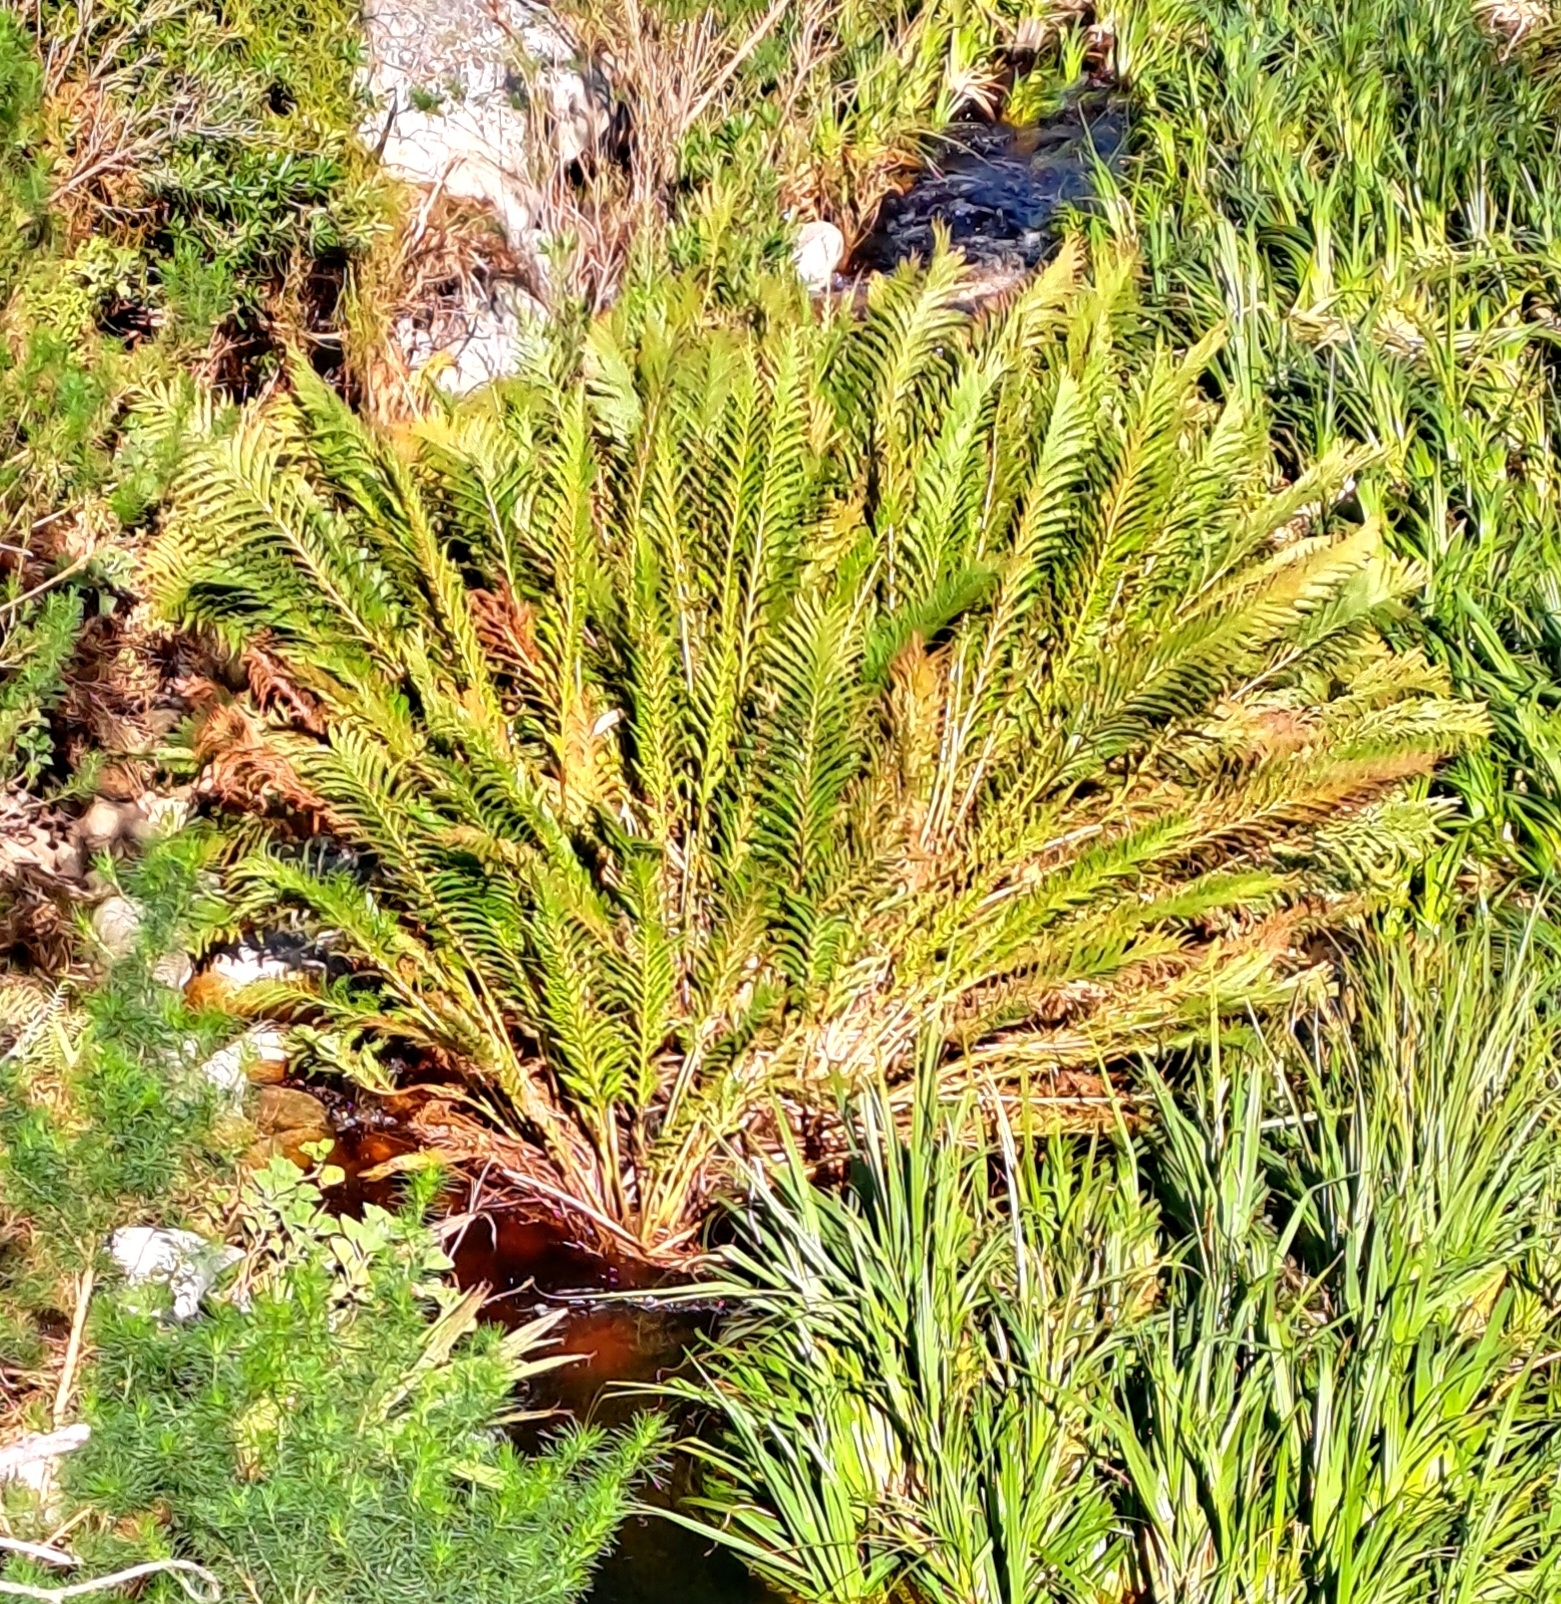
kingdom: Plantae
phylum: Tracheophyta
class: Polypodiopsida
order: Polypodiales
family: Blechnaceae
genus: Lomariocycas
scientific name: Lomariocycas tabularis
